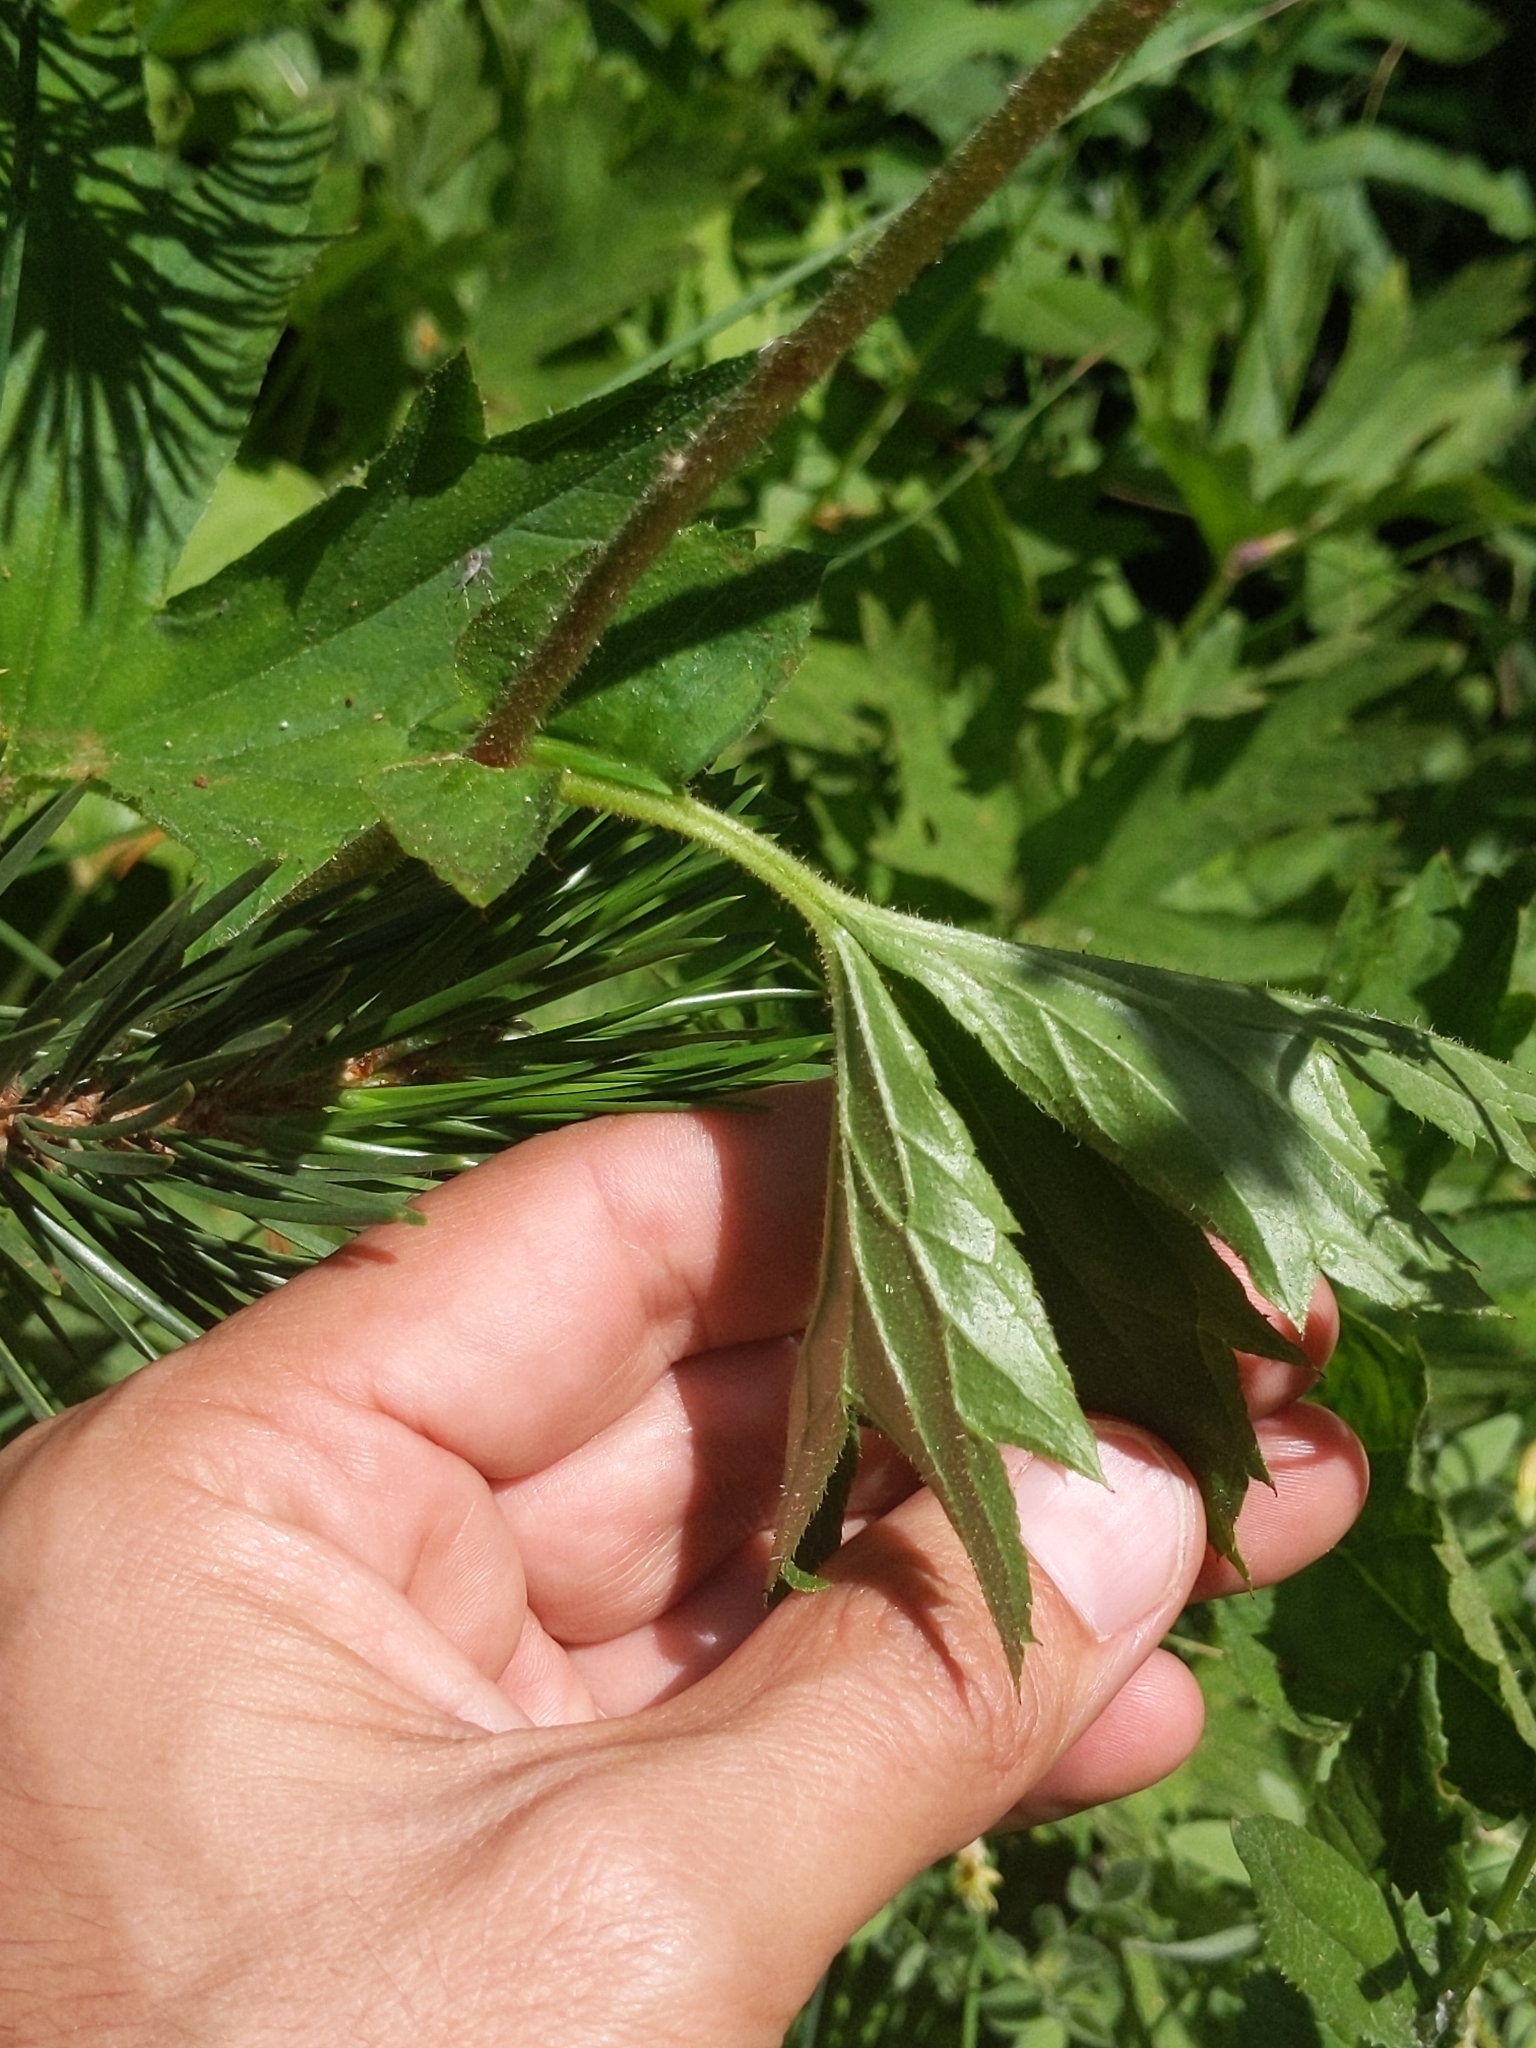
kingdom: Plantae
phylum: Tracheophyta
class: Magnoliopsida
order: Saxifragales
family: Saxifragaceae
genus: Boykinia
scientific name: Boykinia major
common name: Large boykinia
